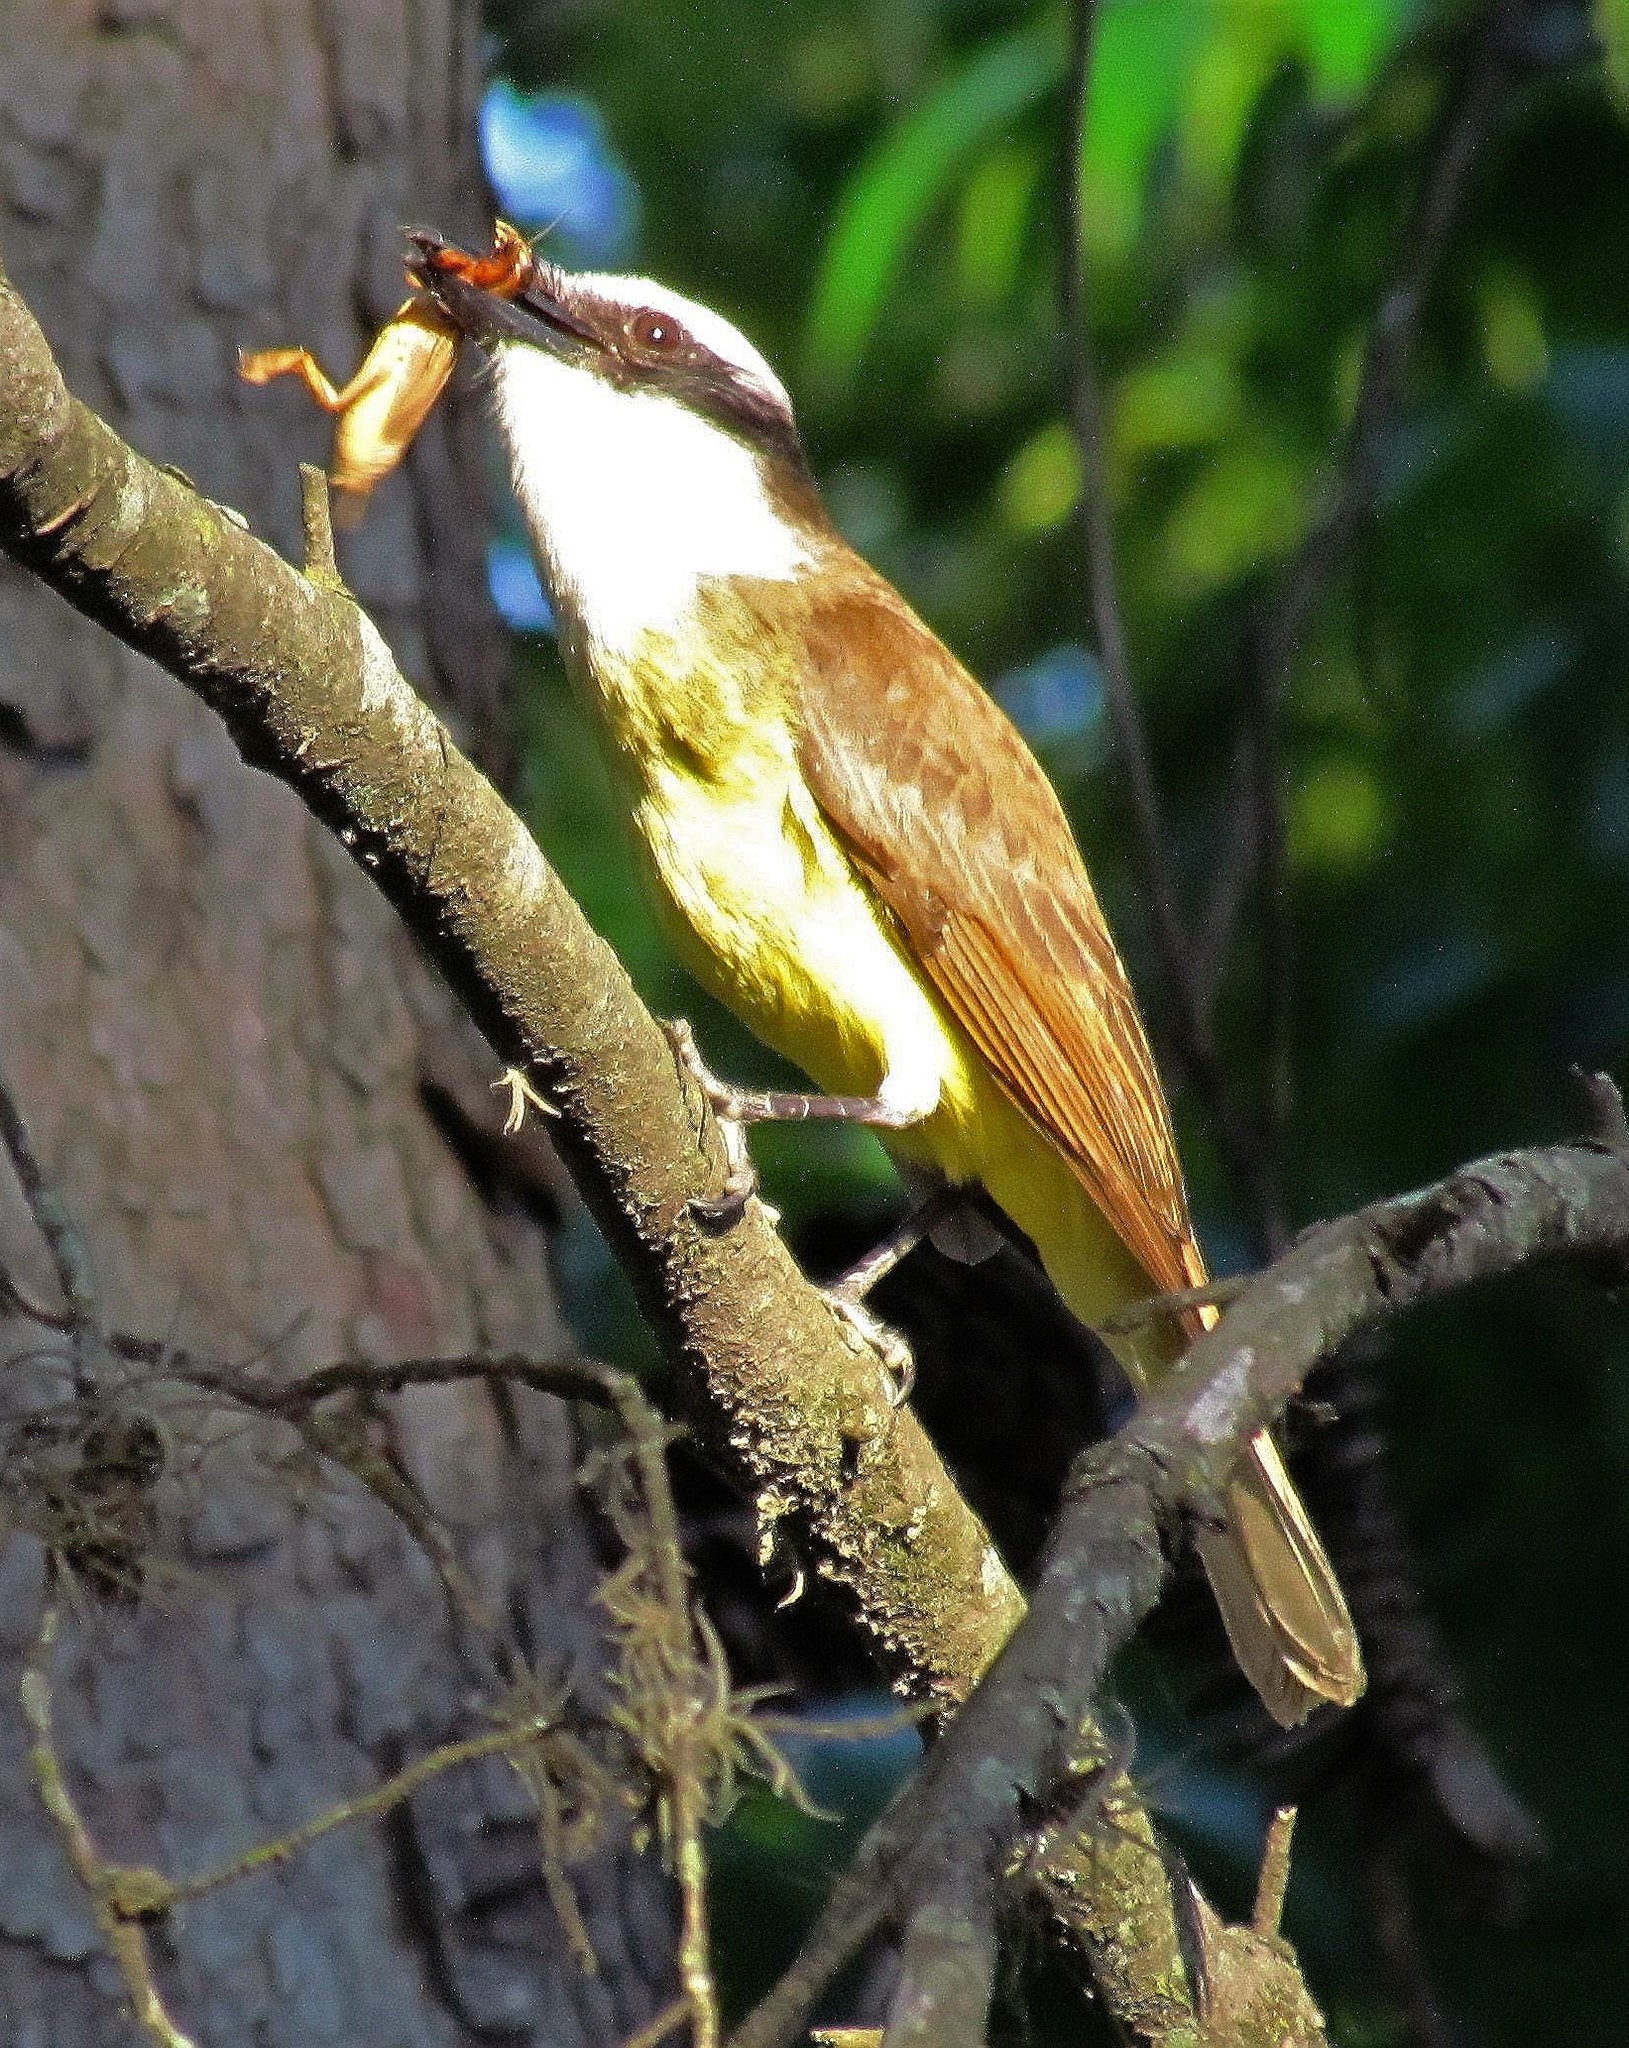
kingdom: Animalia
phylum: Chordata
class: Aves
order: Passeriformes
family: Tyrannidae
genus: Pitangus
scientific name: Pitangus sulphuratus
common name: Great kiskadee
